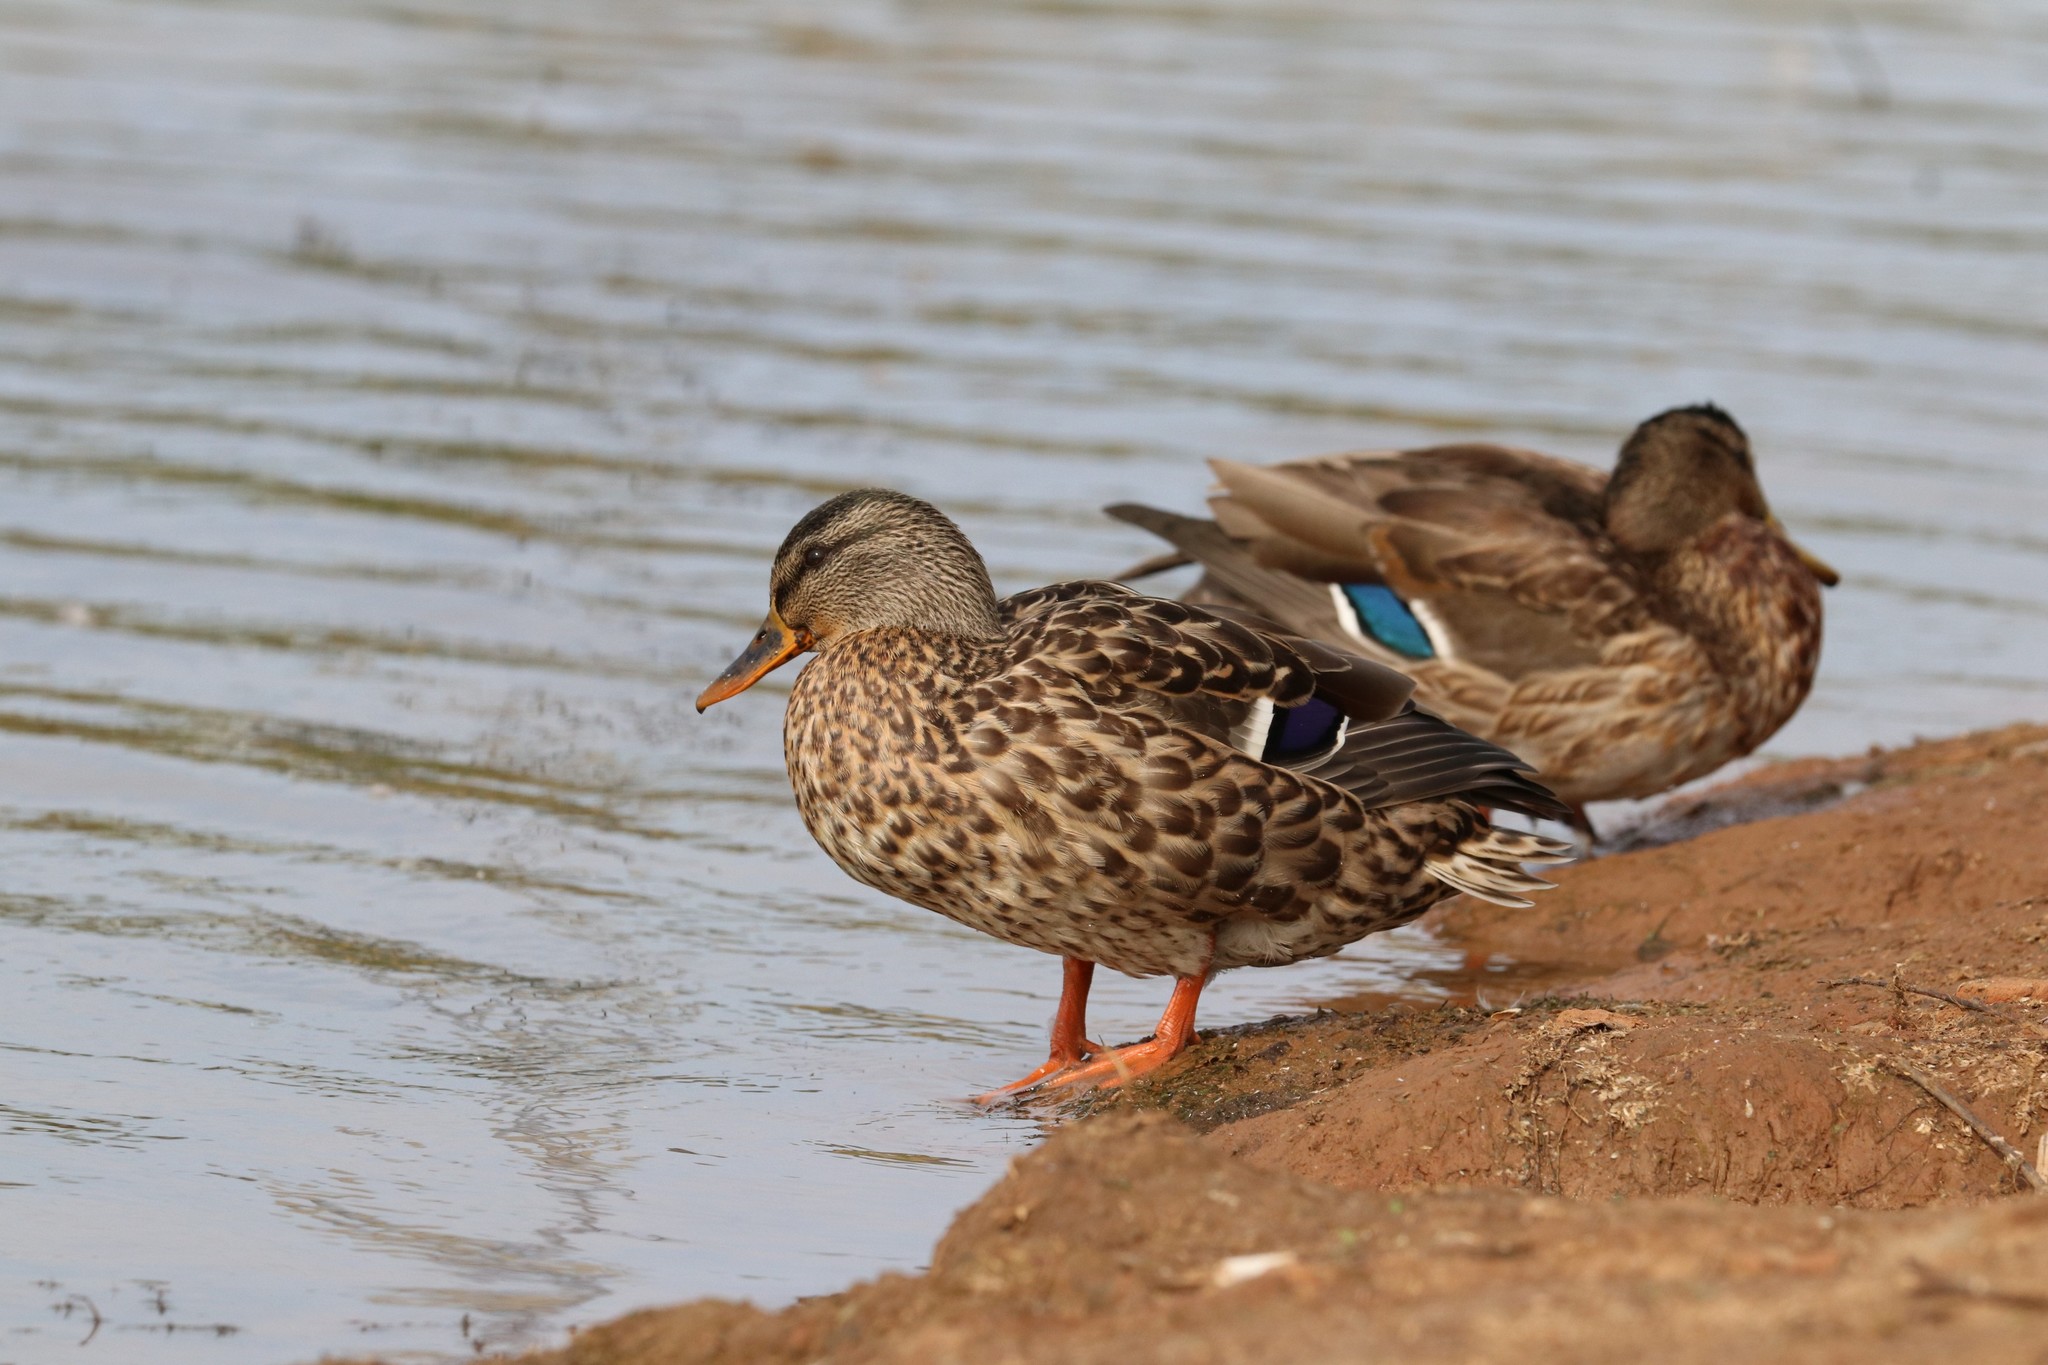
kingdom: Animalia
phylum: Chordata
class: Aves
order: Anseriformes
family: Anatidae
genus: Anas
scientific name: Anas platyrhynchos
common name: Mallard
